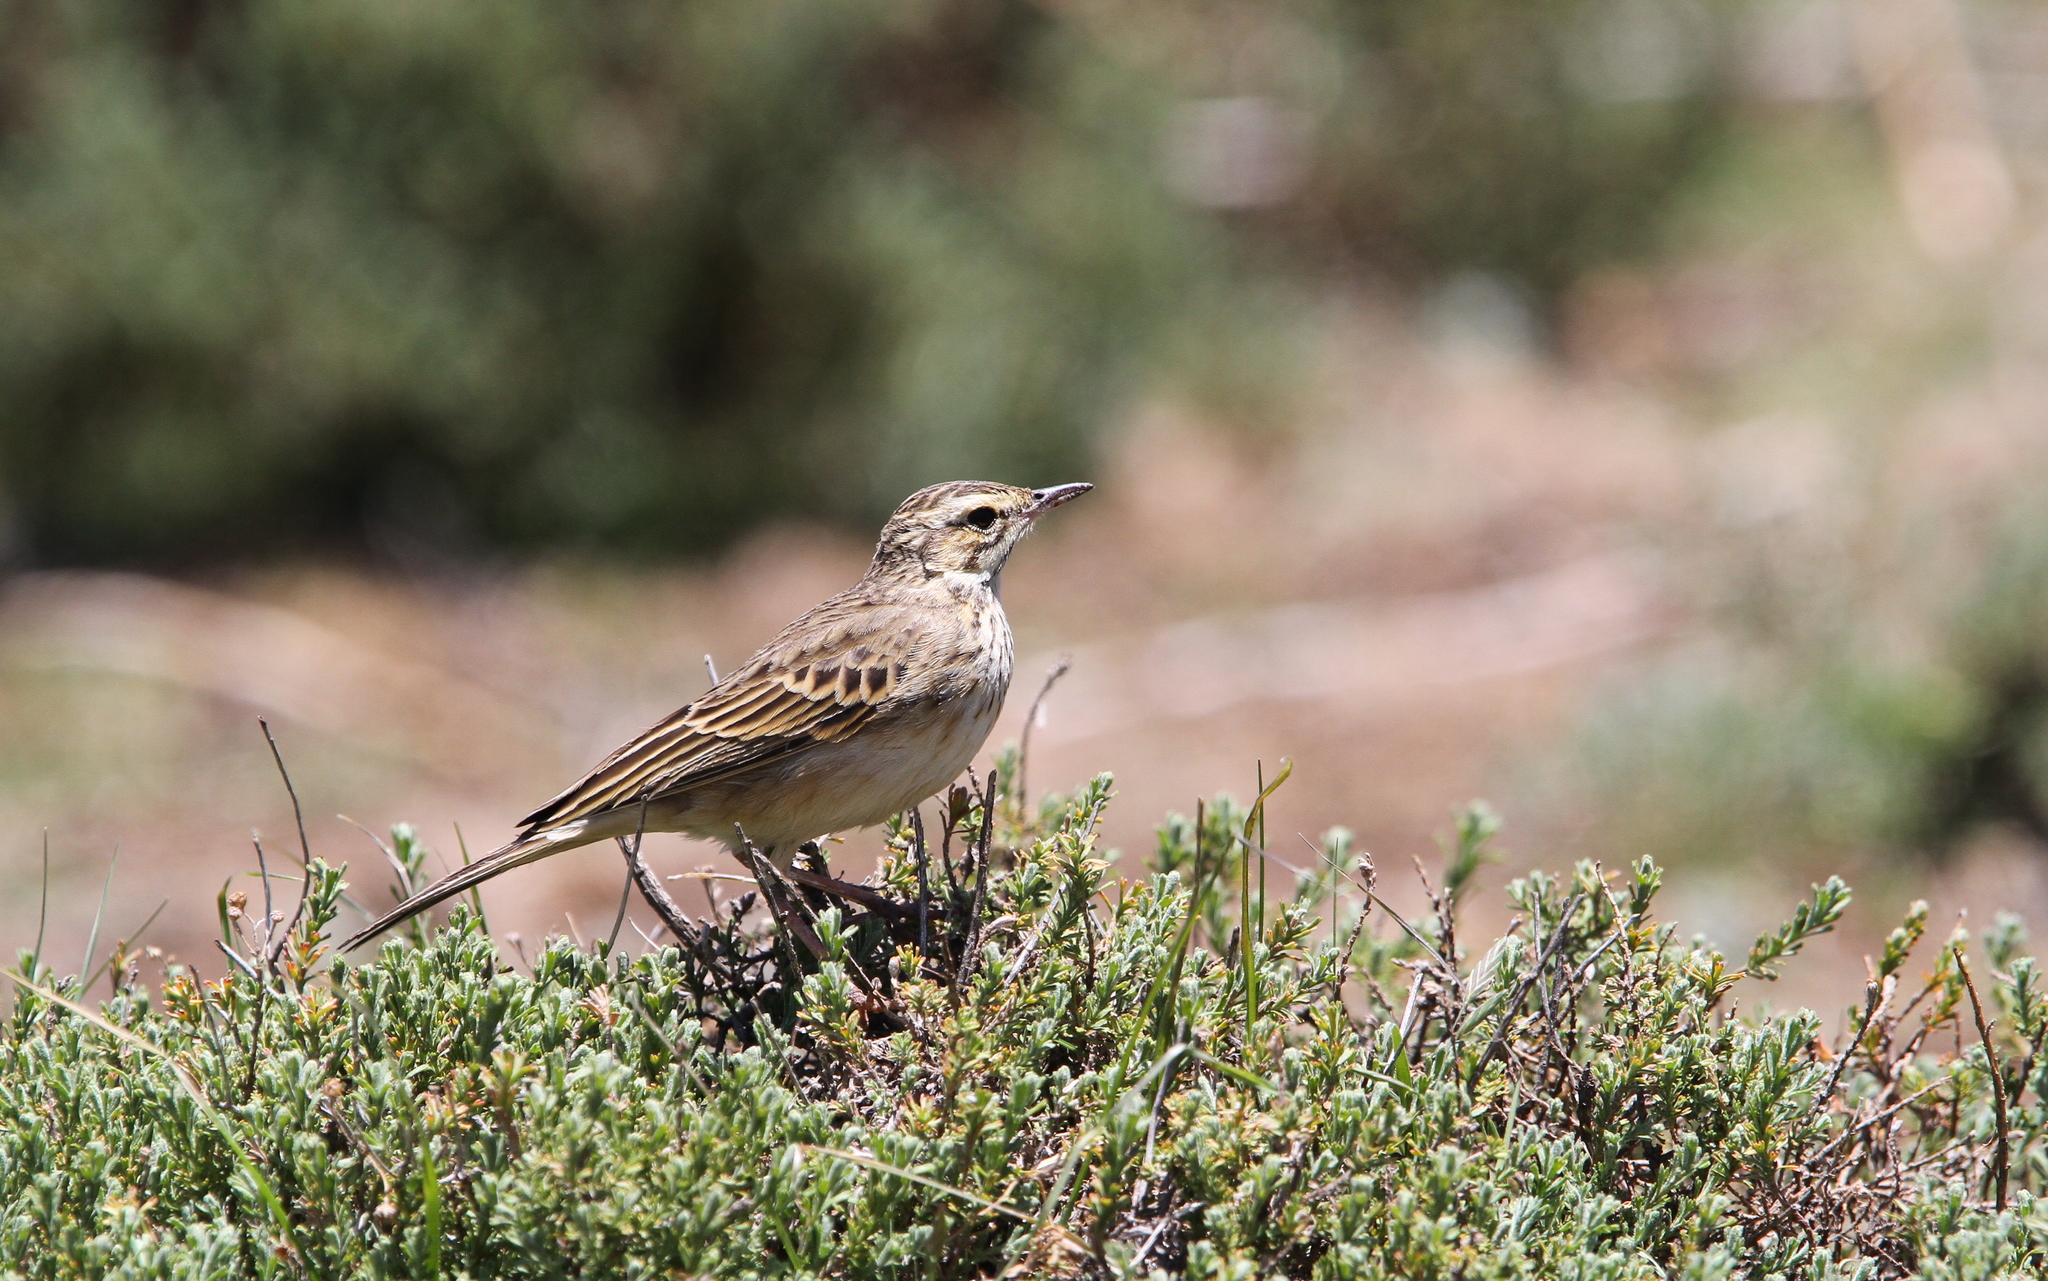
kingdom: Animalia
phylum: Chordata
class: Aves
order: Passeriformes
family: Motacillidae
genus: Anthus
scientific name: Anthus hoeschi
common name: Mountain pipit
